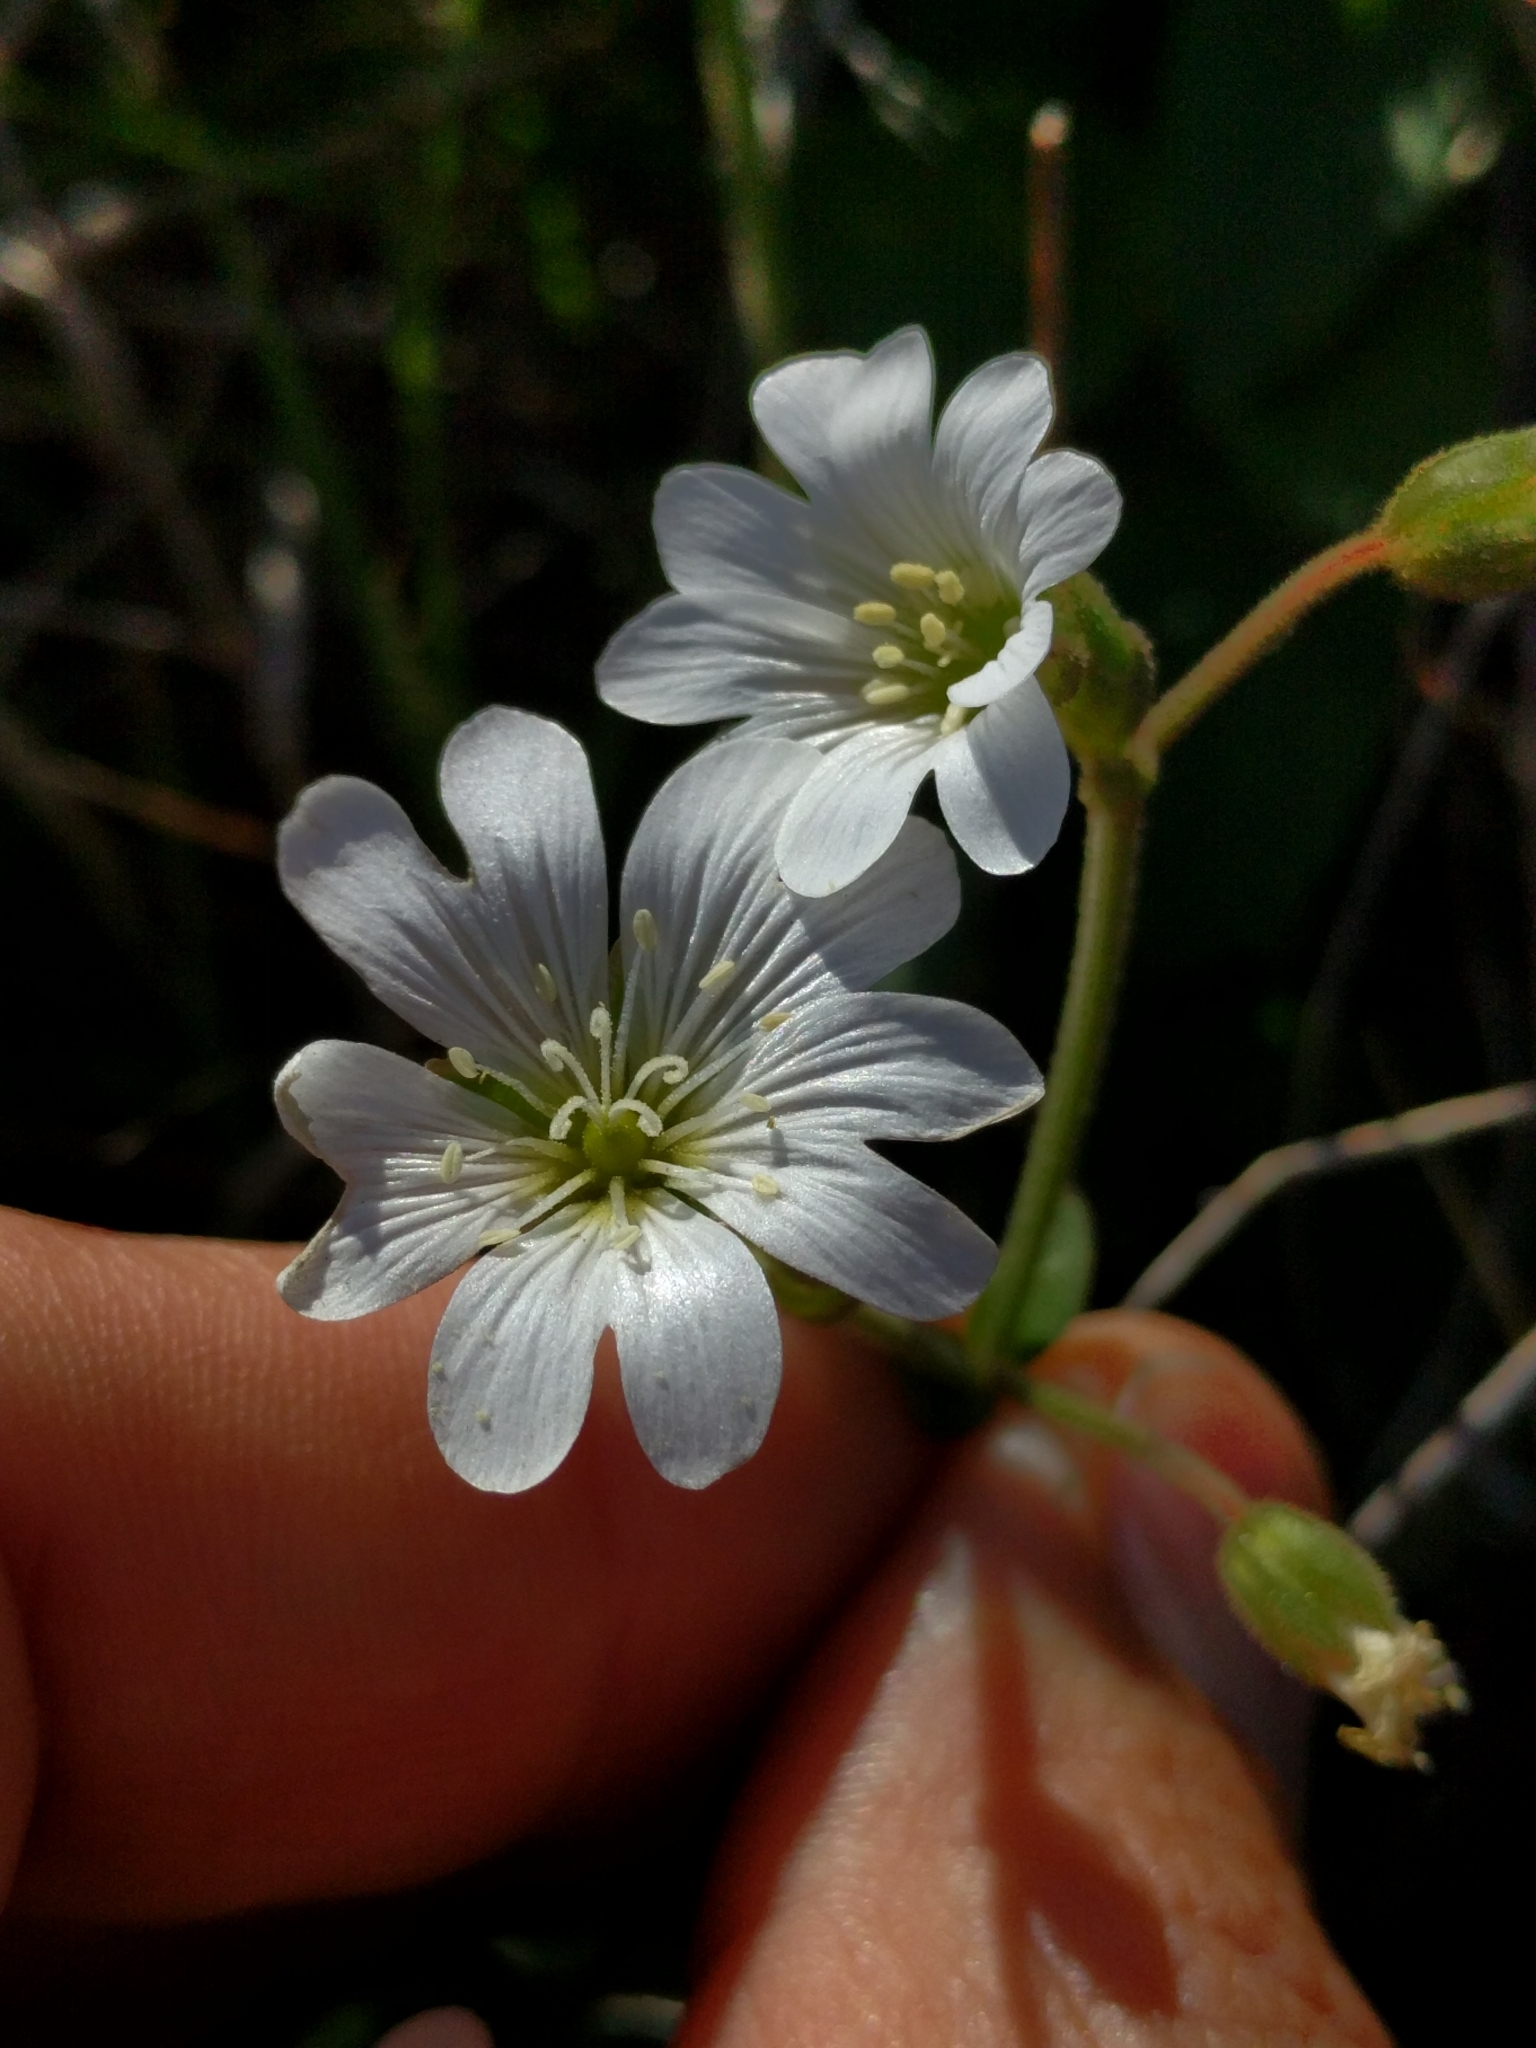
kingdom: Plantae
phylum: Tracheophyta
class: Magnoliopsida
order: Caryophyllales
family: Caryophyllaceae
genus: Cerastium
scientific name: Cerastium arvense
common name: Field mouse-ear
